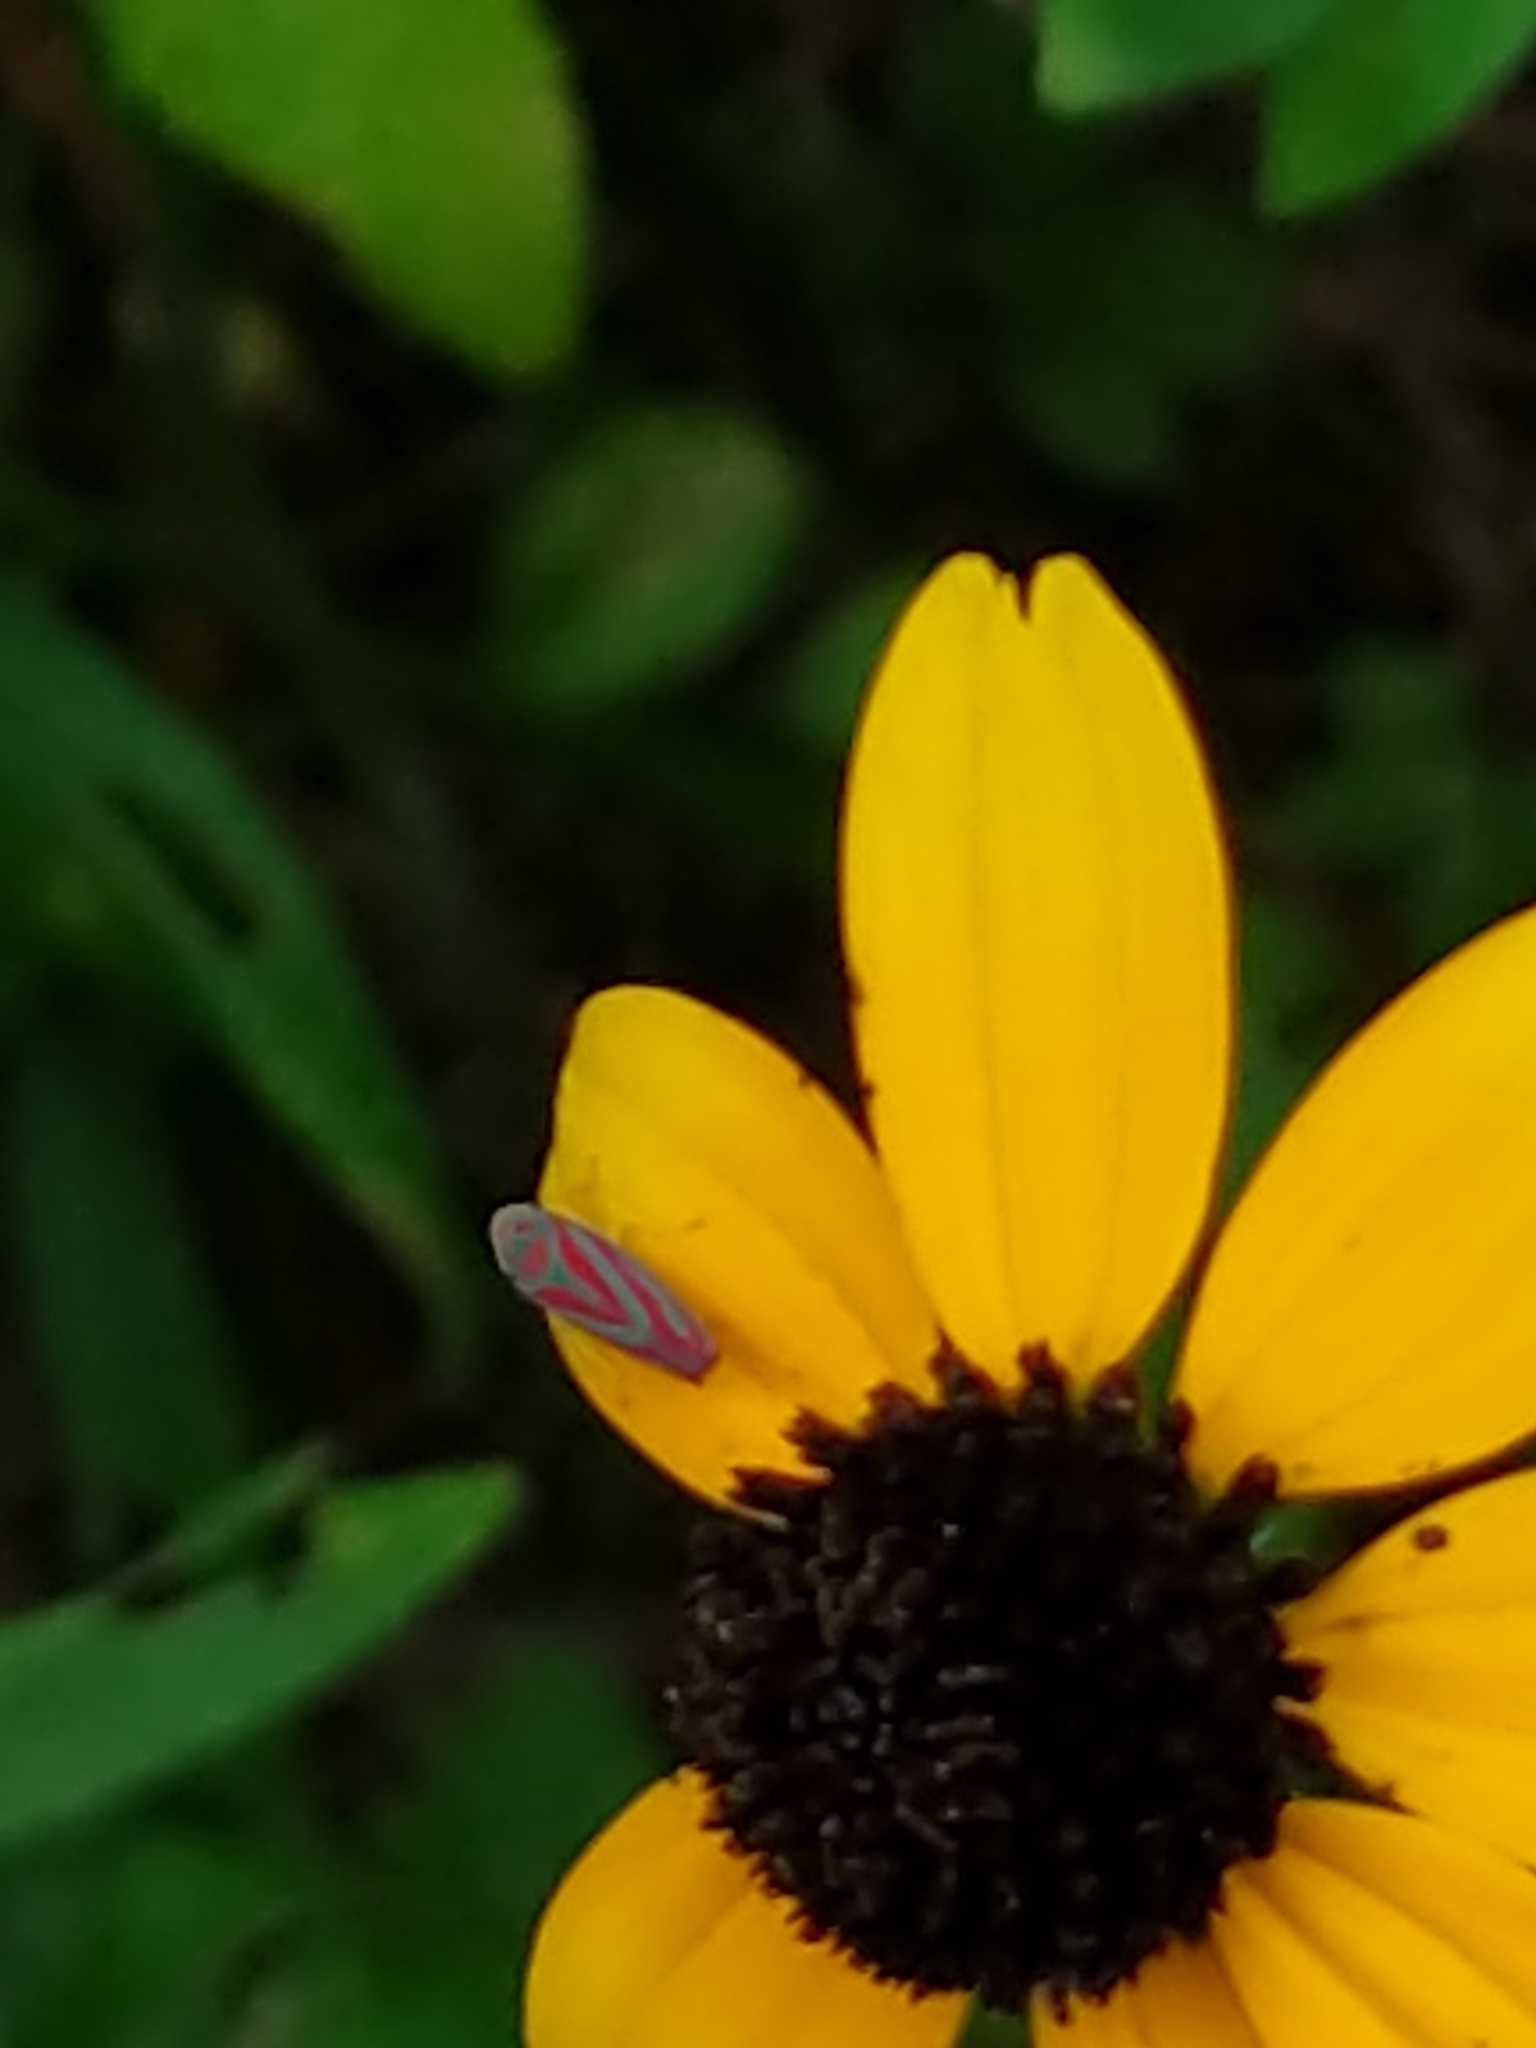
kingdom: Animalia
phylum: Arthropoda
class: Insecta
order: Hemiptera
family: Cicadellidae
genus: Graphocephala
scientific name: Graphocephala coccinea
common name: Candy-striped leafhopper
